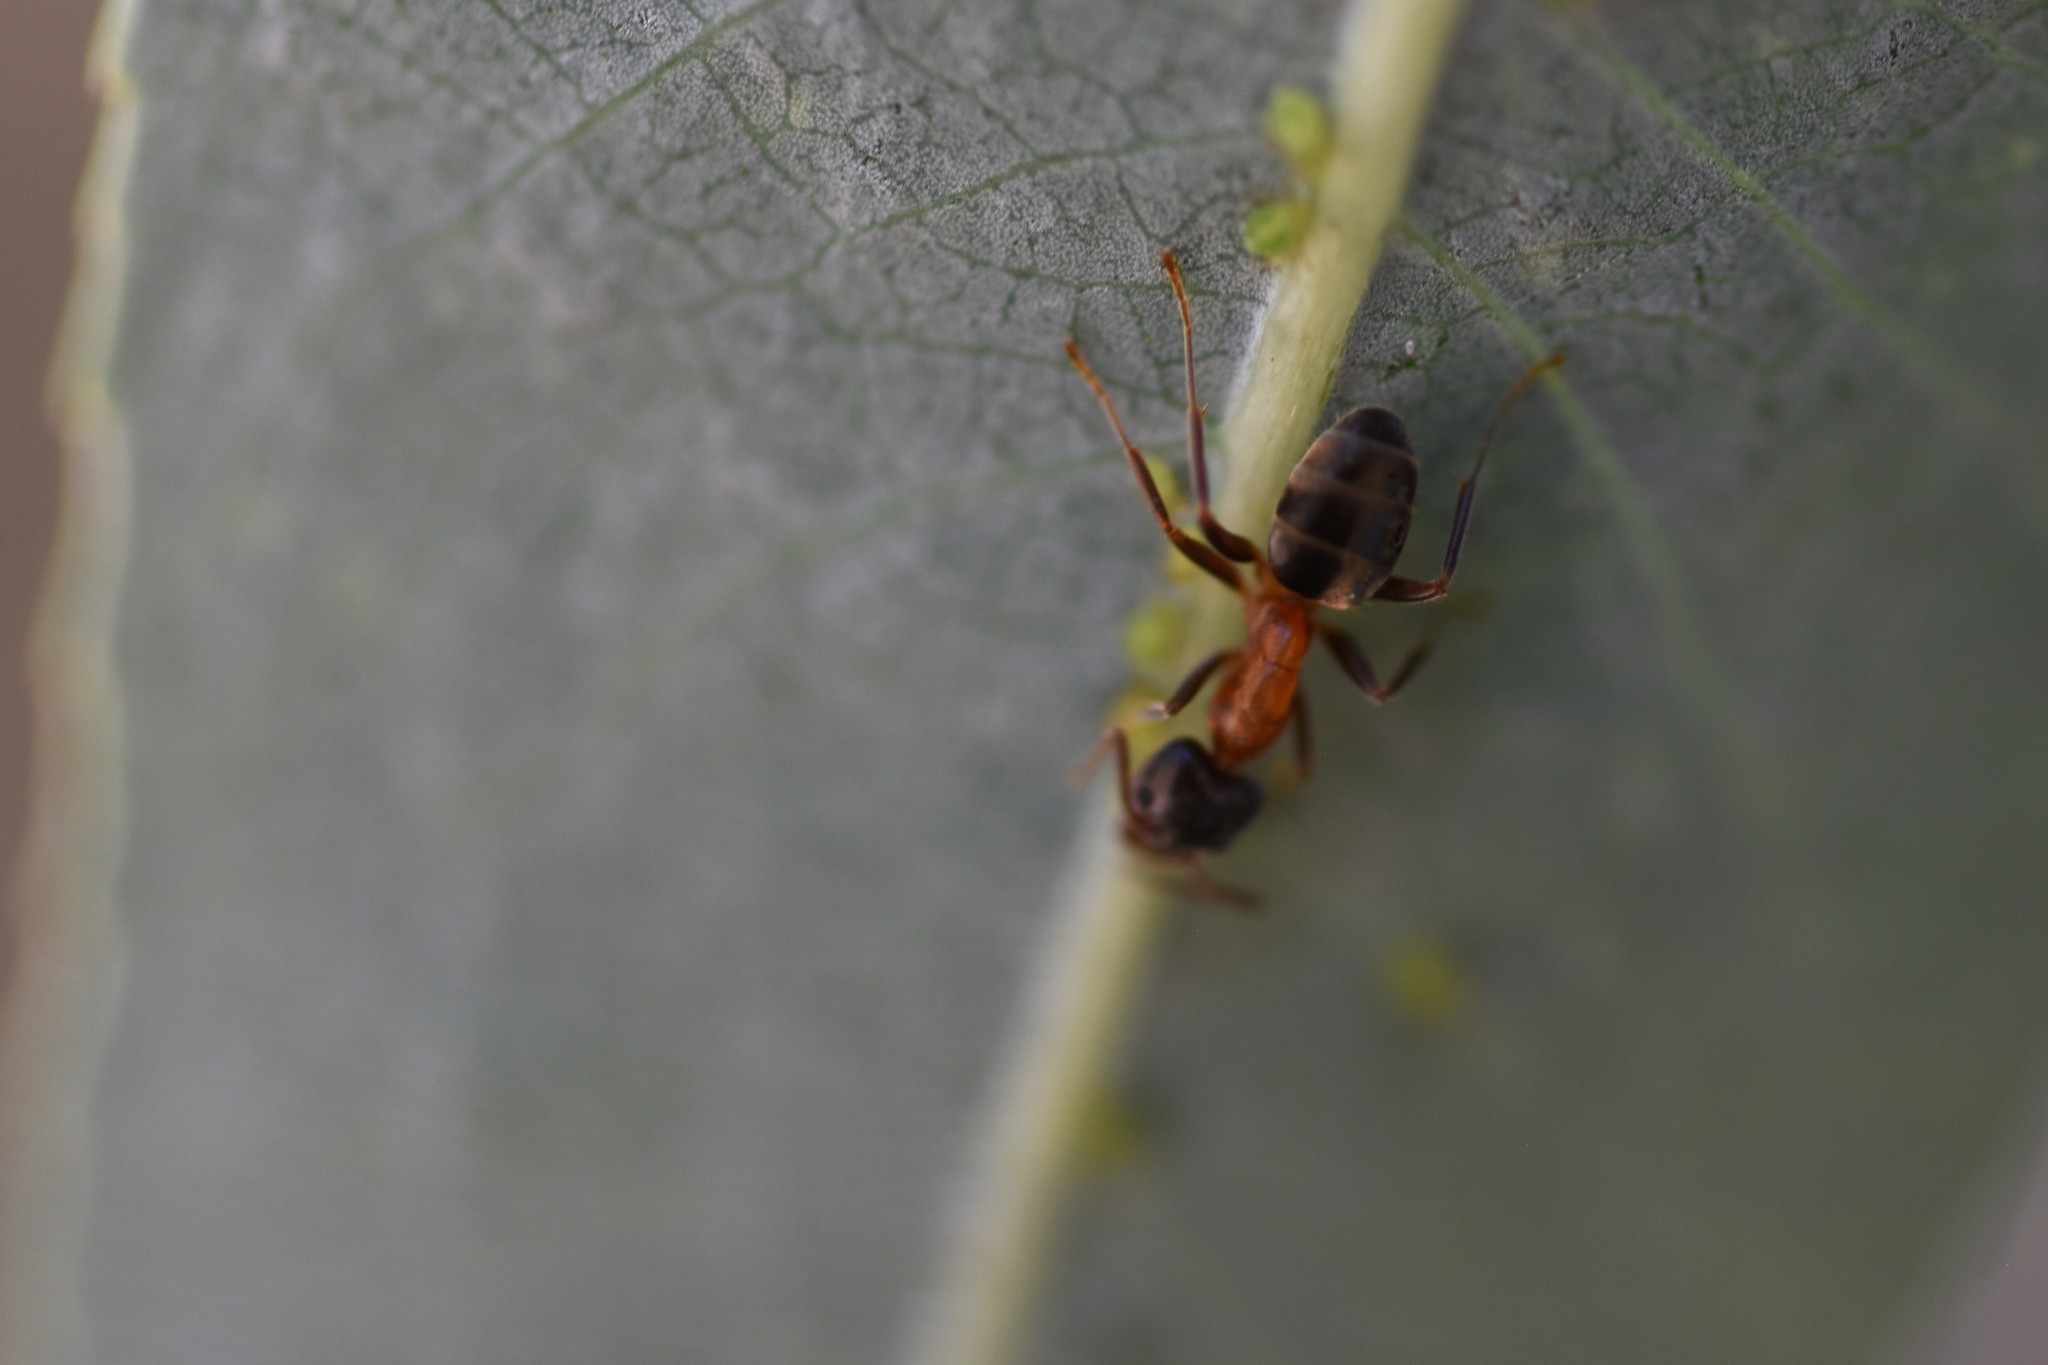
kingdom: Animalia
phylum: Arthropoda
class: Insecta
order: Hymenoptera
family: Formicidae
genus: Liometopum
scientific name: Liometopum occidentale
